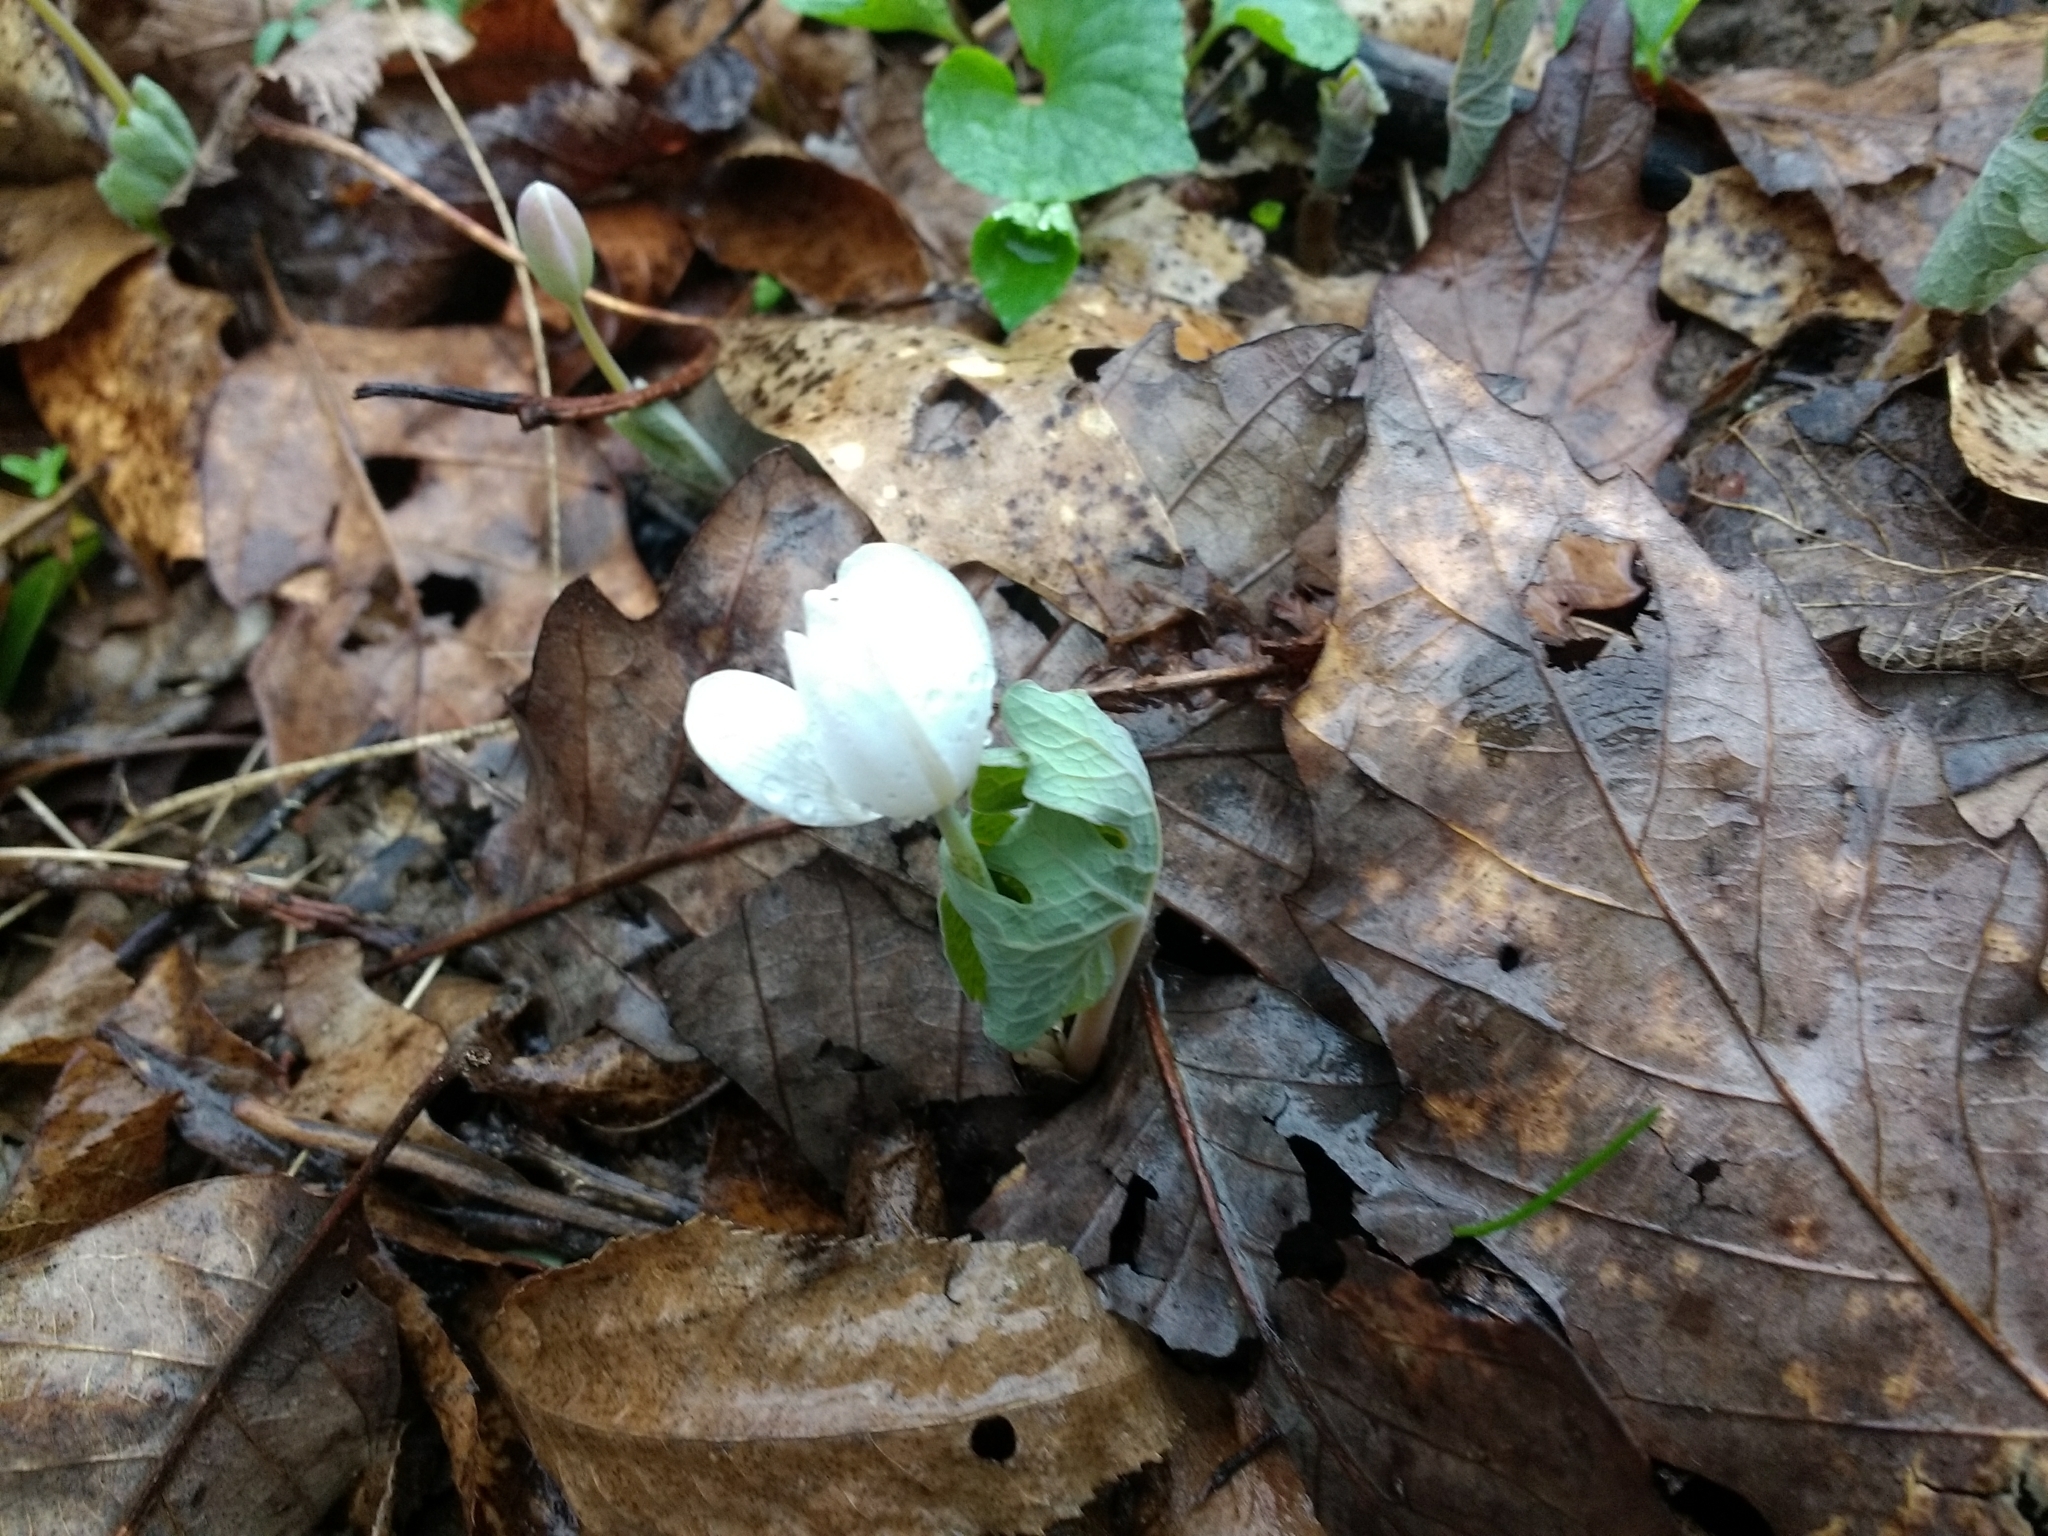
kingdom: Plantae
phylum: Tracheophyta
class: Magnoliopsida
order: Ranunculales
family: Papaveraceae
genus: Sanguinaria
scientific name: Sanguinaria canadensis
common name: Bloodroot
